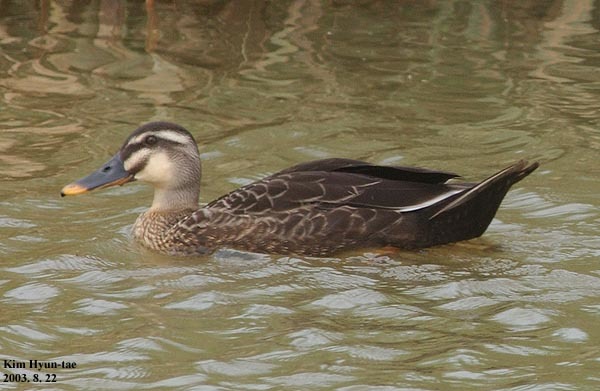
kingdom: Animalia
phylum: Chordata
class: Aves
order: Anseriformes
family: Anatidae
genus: Anas
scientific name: Anas zonorhyncha
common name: Eastern spot-billed duck
